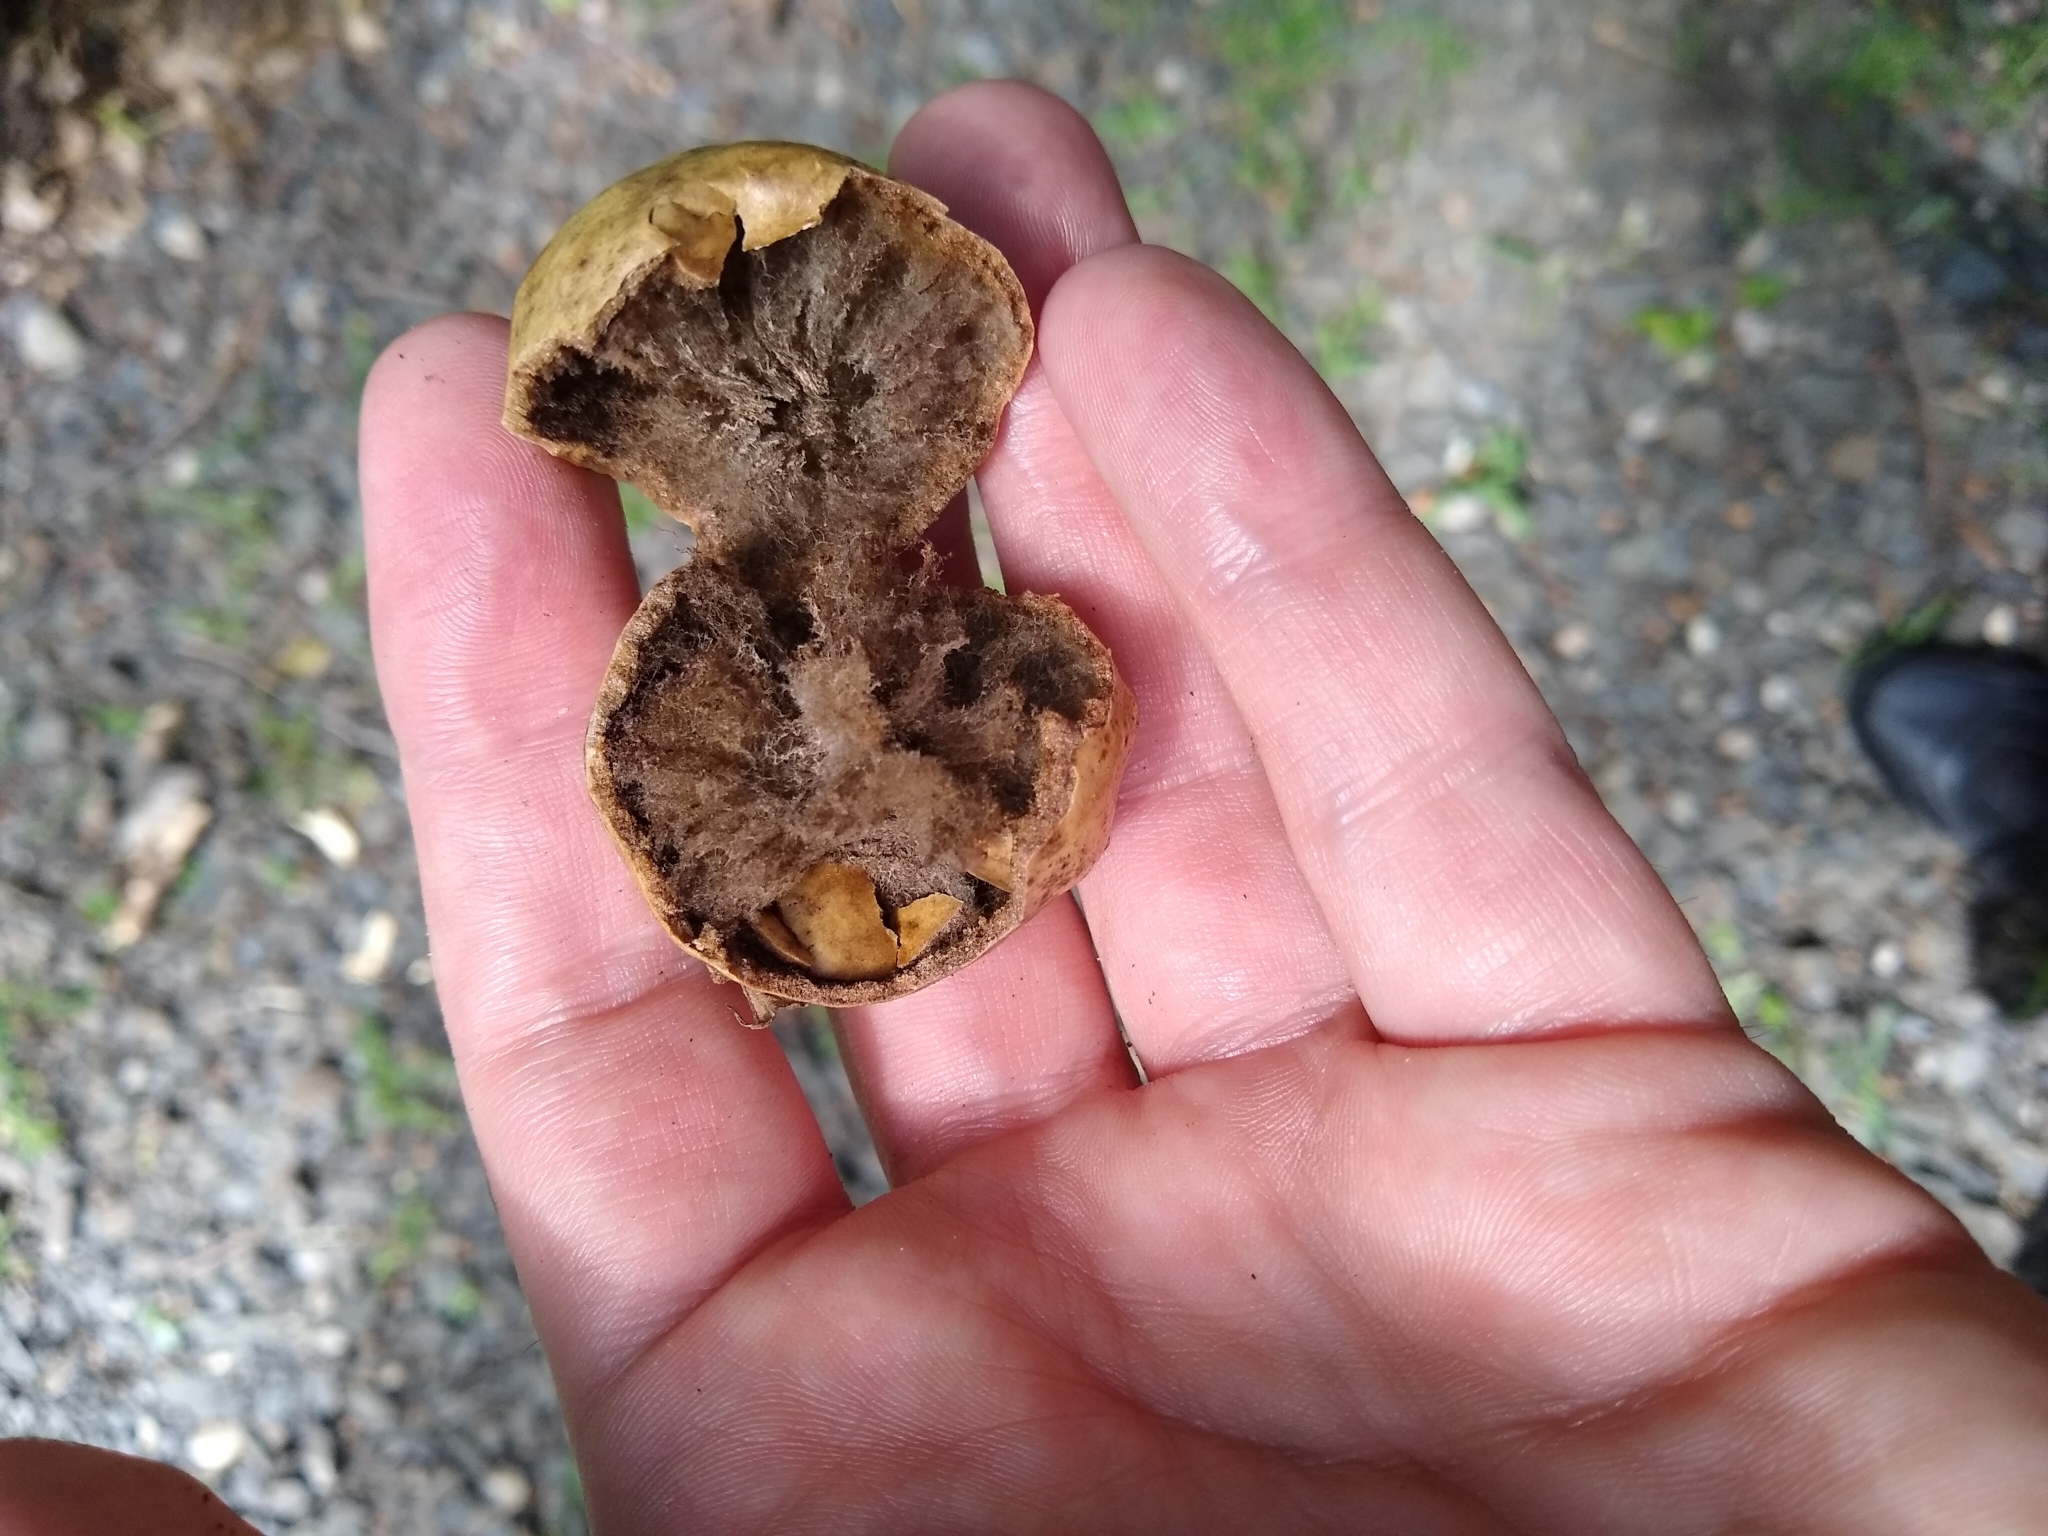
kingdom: Animalia
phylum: Arthropoda
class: Insecta
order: Hymenoptera
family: Cynipidae
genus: Amphibolips
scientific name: Amphibolips
